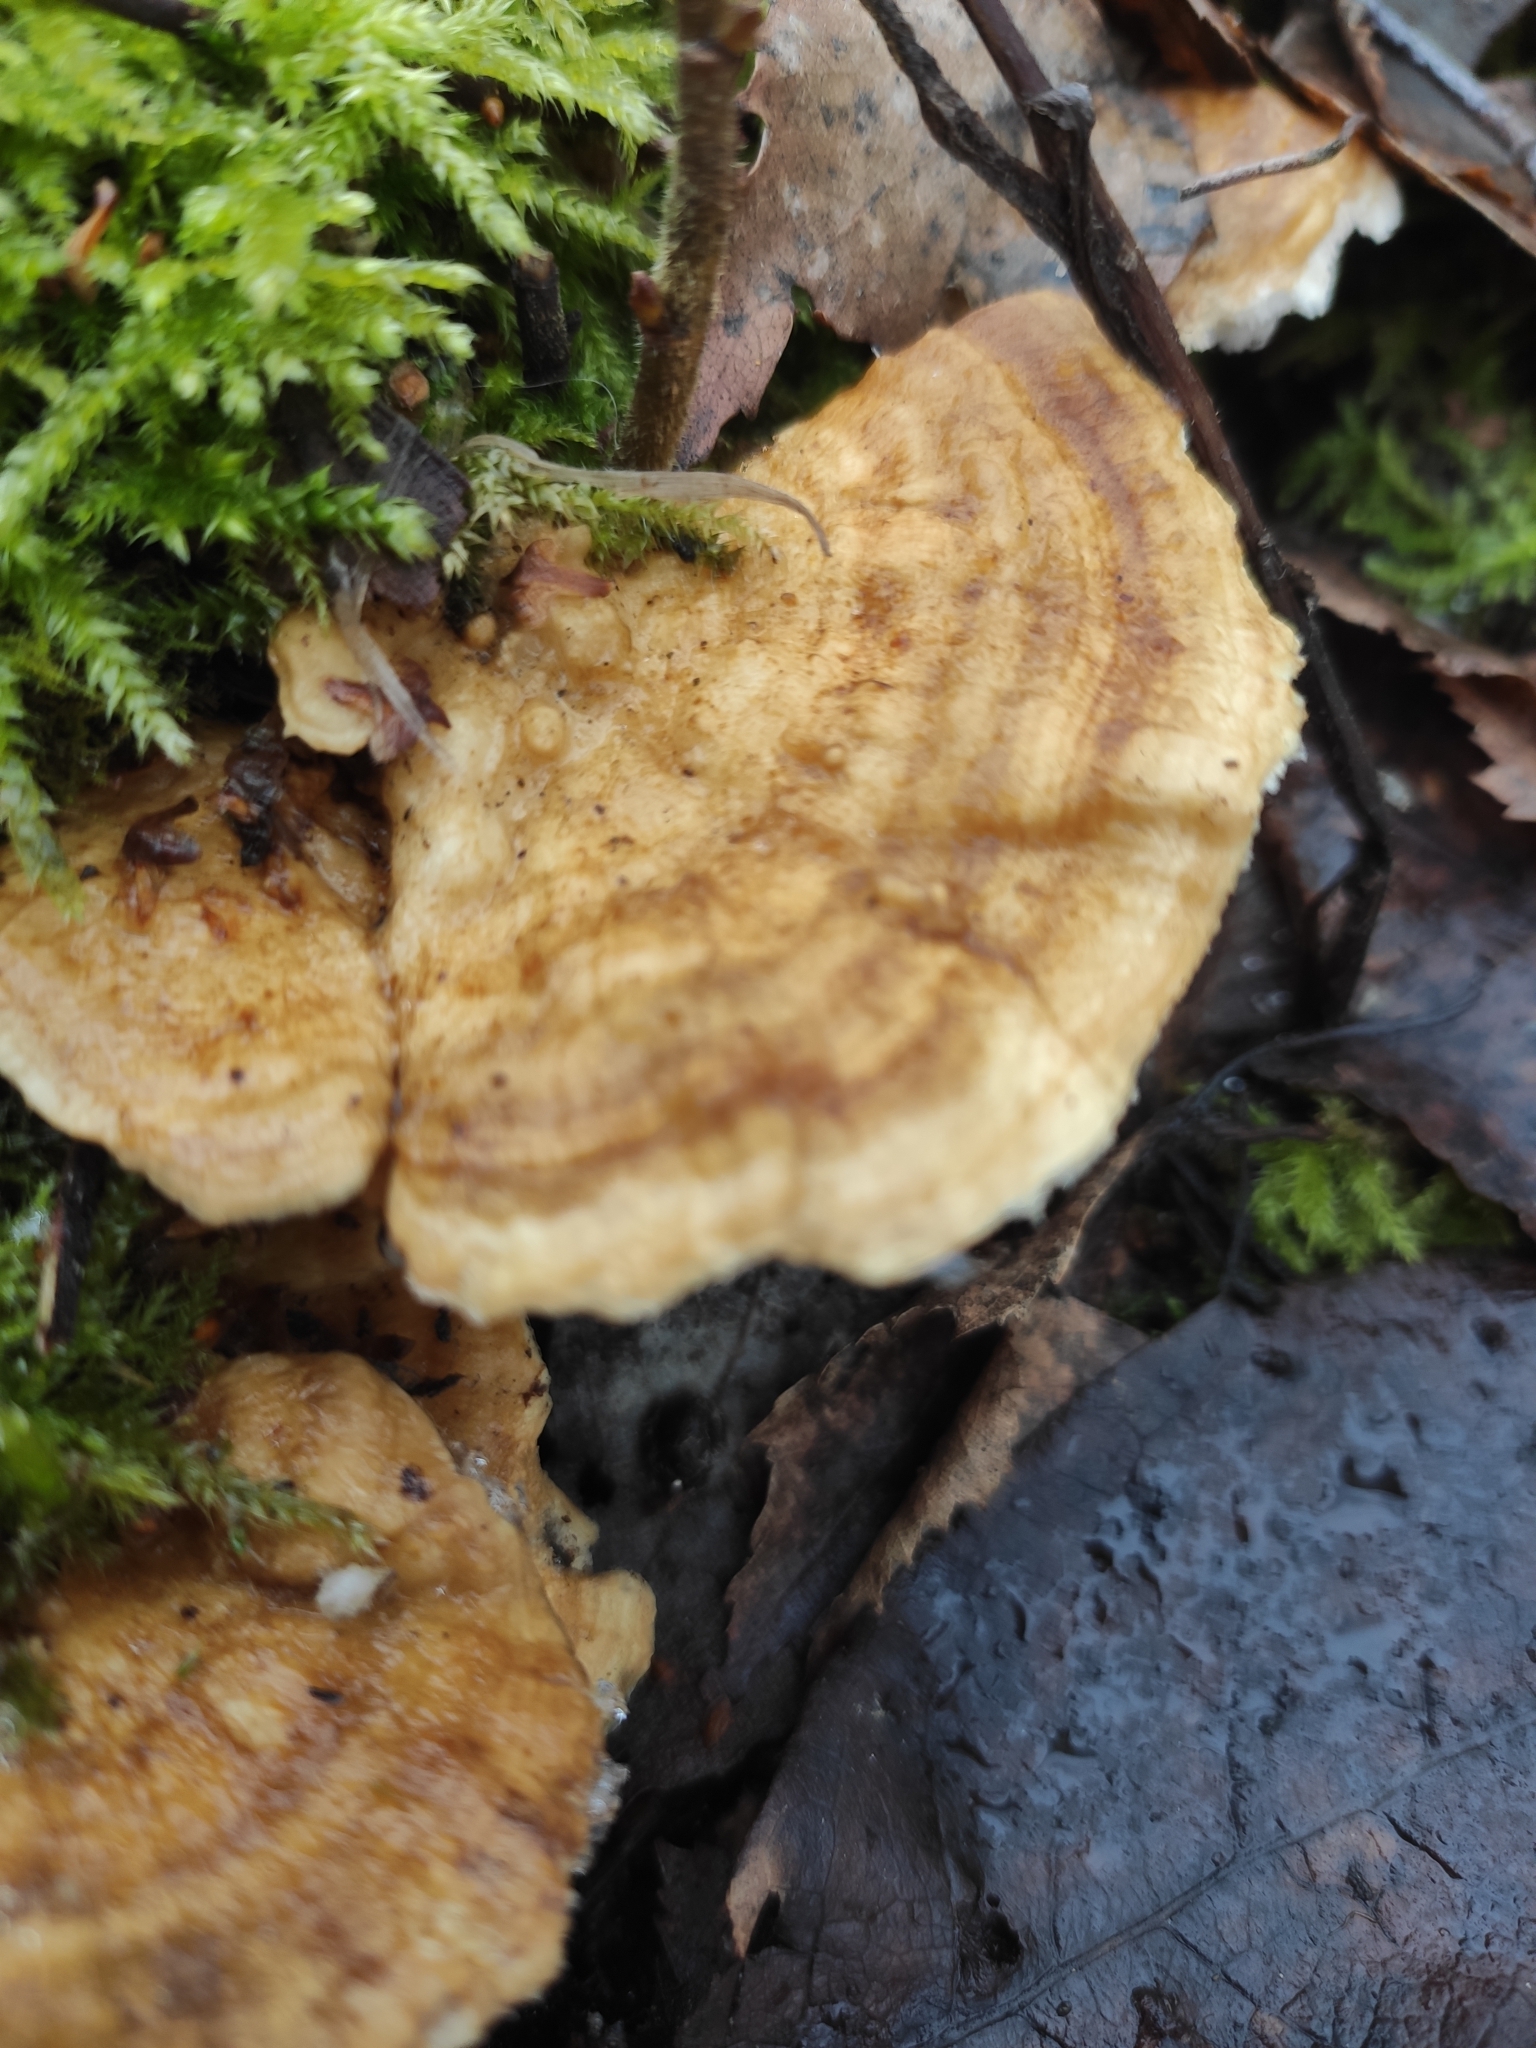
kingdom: Fungi
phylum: Basidiomycota
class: Agaricomycetes
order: Polyporales
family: Polyporaceae
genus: Trametes
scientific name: Trametes ochracea
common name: Ochre bracket
